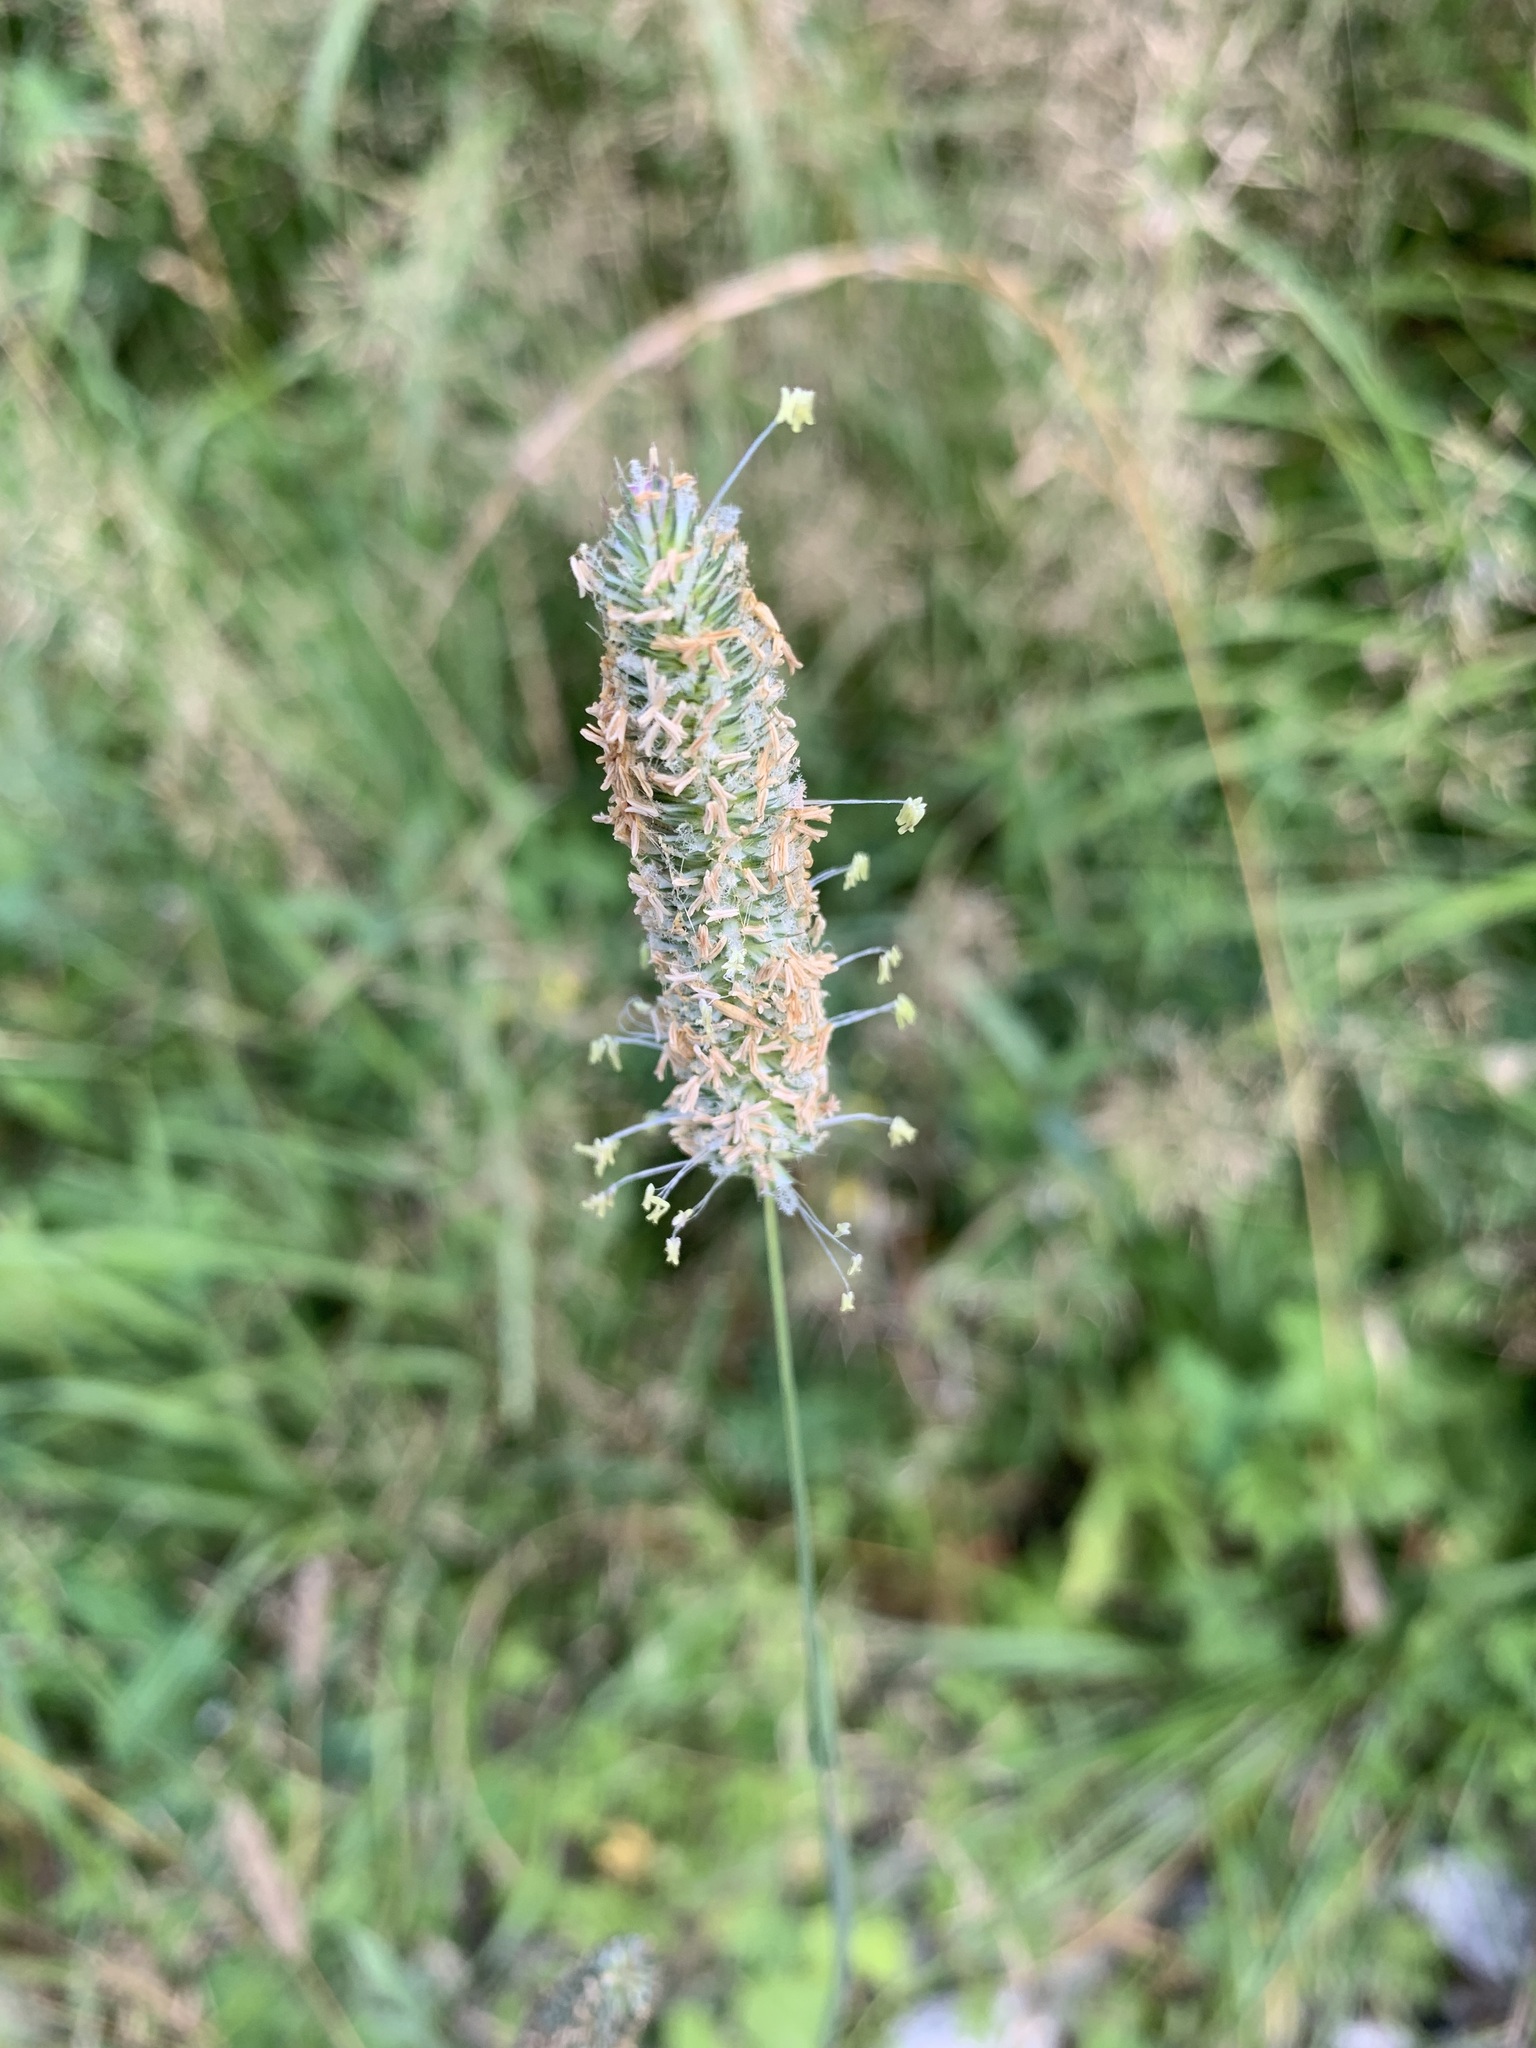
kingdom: Plantae
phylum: Tracheophyta
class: Liliopsida
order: Poales
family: Poaceae
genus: Phleum
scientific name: Phleum pratense
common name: Timothy grass
